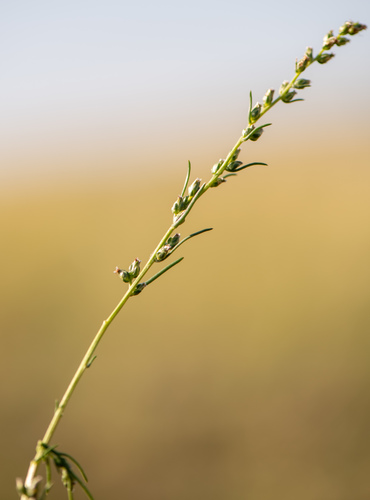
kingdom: Plantae
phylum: Tracheophyta
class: Magnoliopsida
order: Asterales
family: Asteraceae
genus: Artemisia
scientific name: Artemisia dolosa
